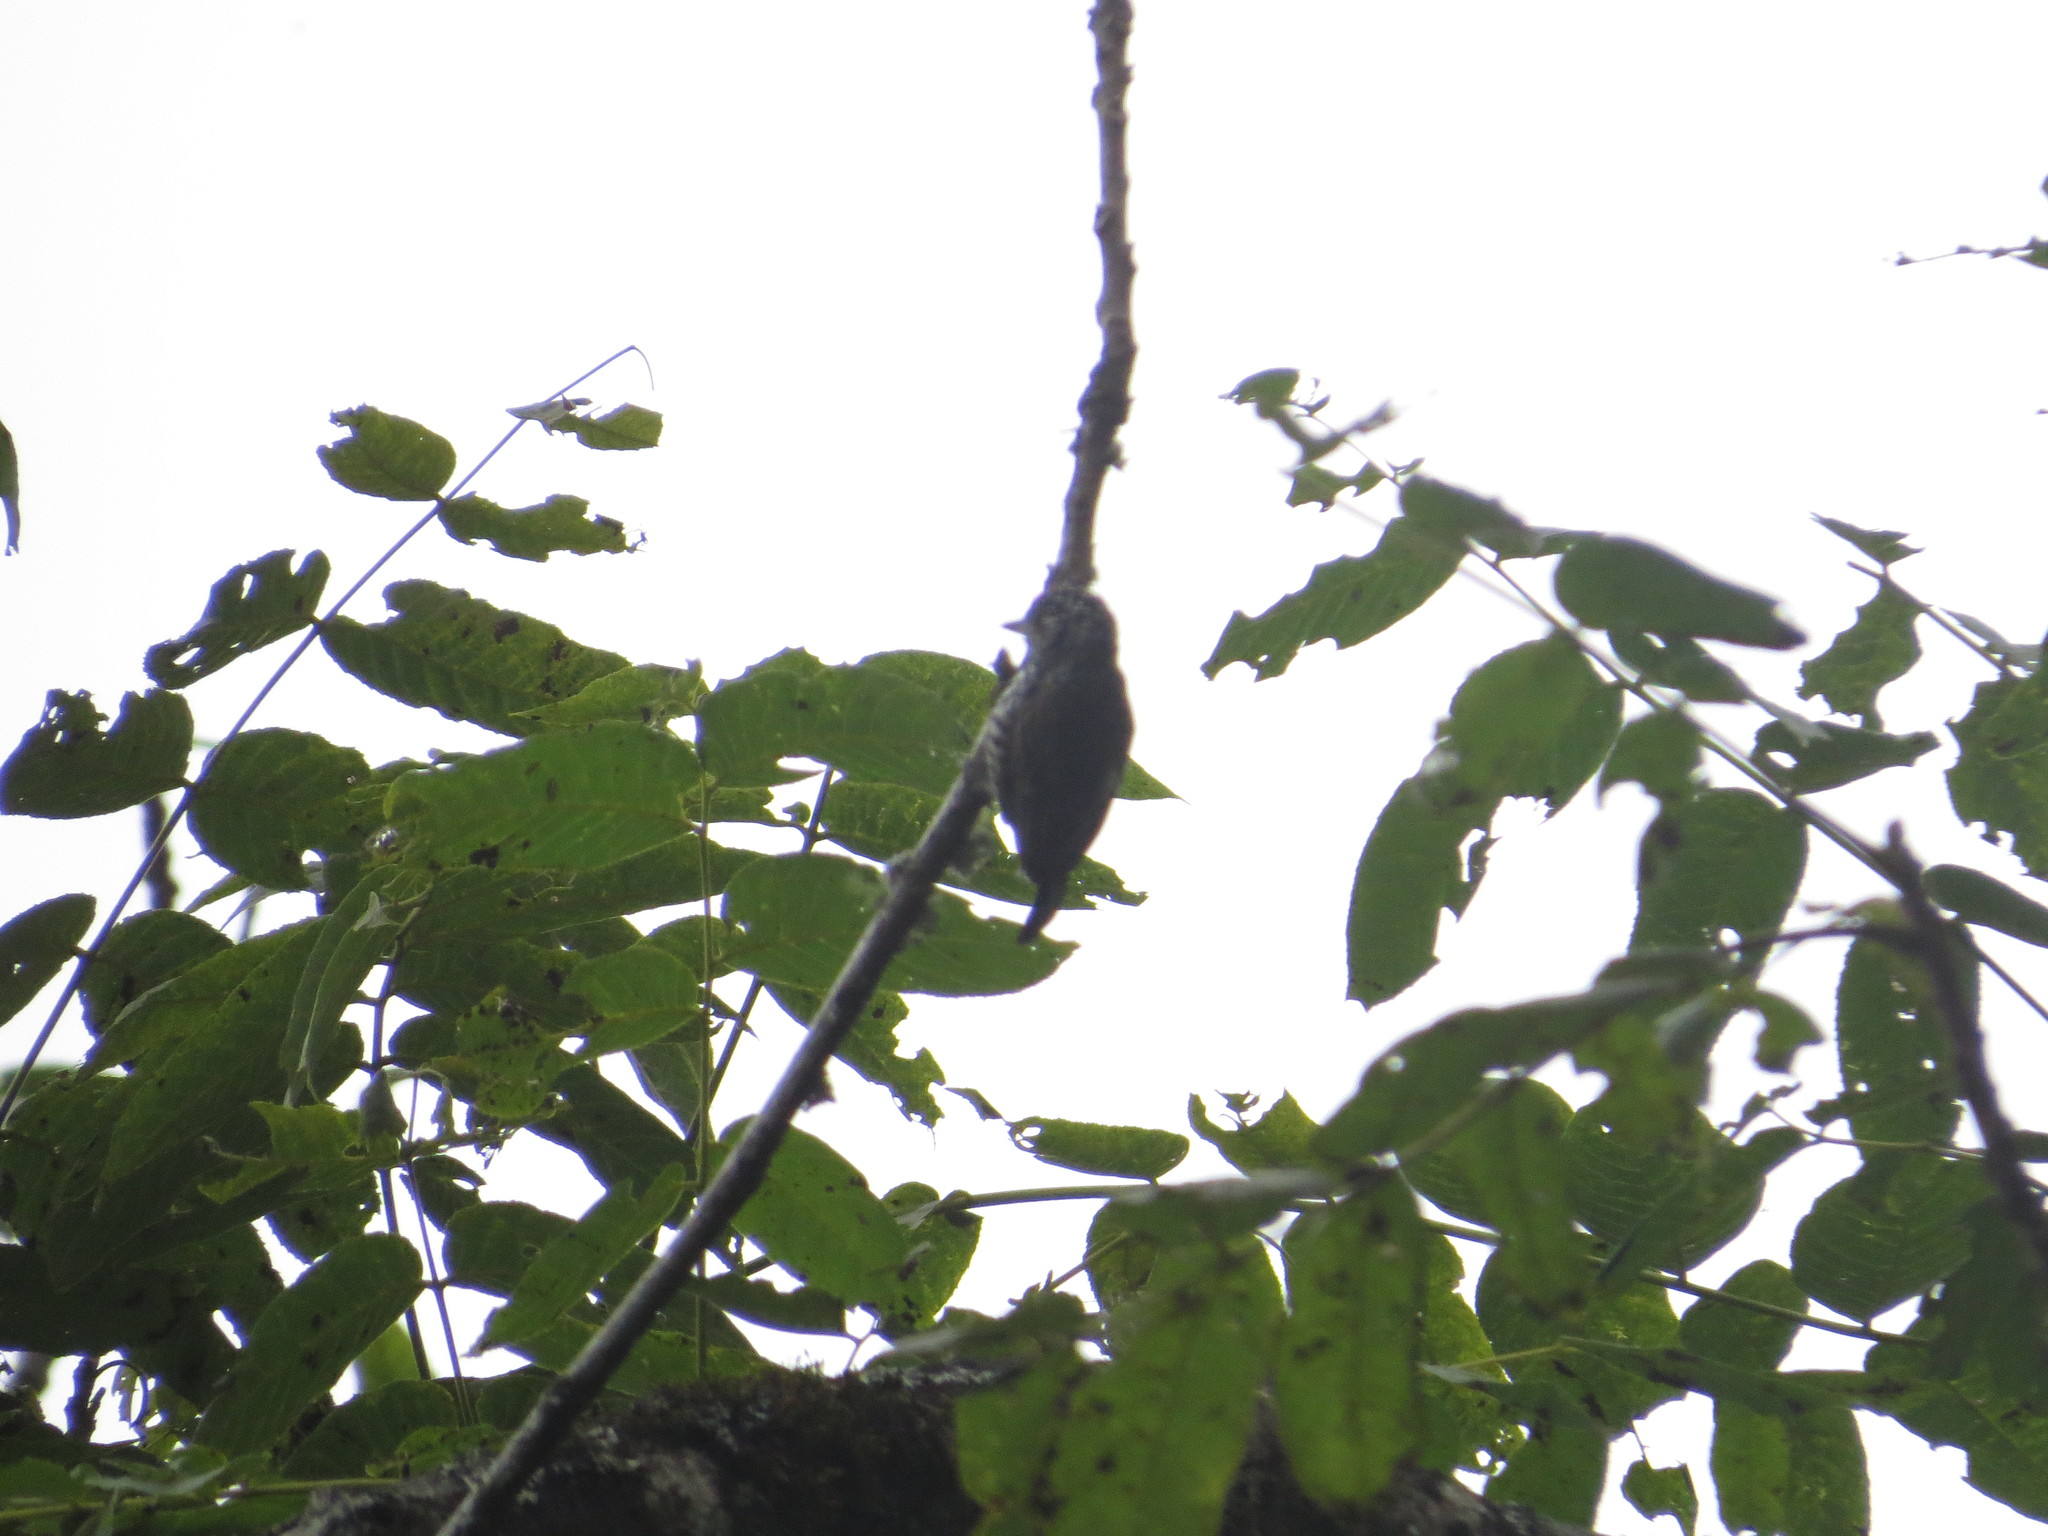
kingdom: Animalia
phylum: Chordata
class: Aves
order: Piciformes
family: Picidae
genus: Picumnus
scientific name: Picumnus cirratus
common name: White-barred piculet
